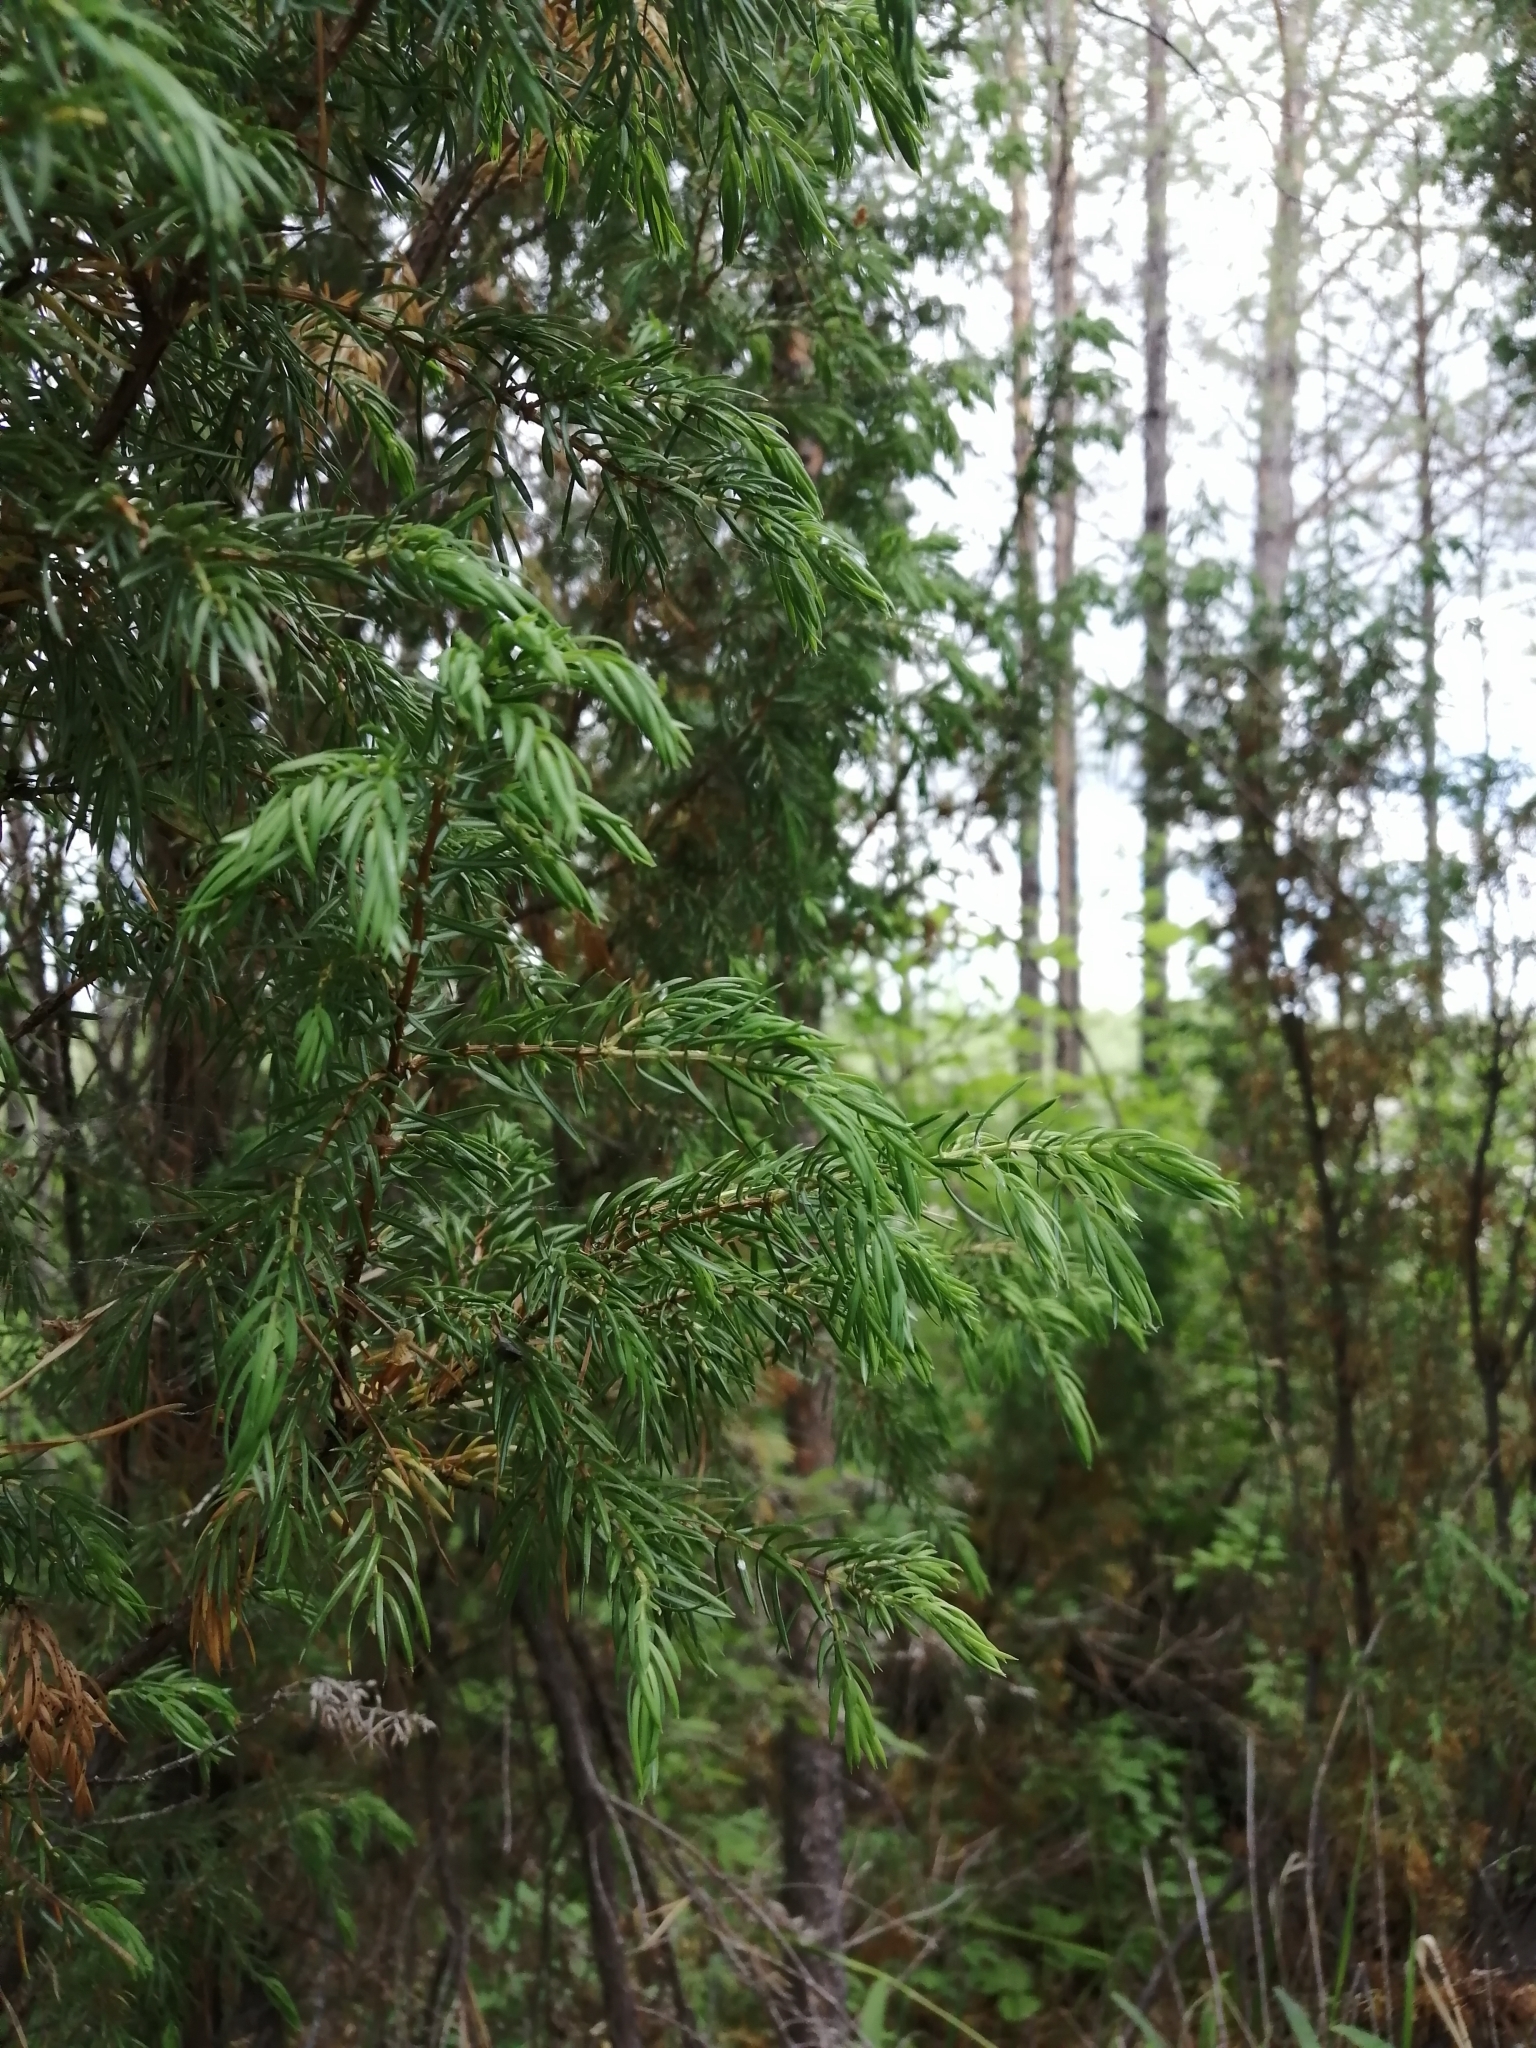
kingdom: Plantae
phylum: Tracheophyta
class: Pinopsida
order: Pinales
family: Cupressaceae
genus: Juniperus
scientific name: Juniperus communis
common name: Common juniper
